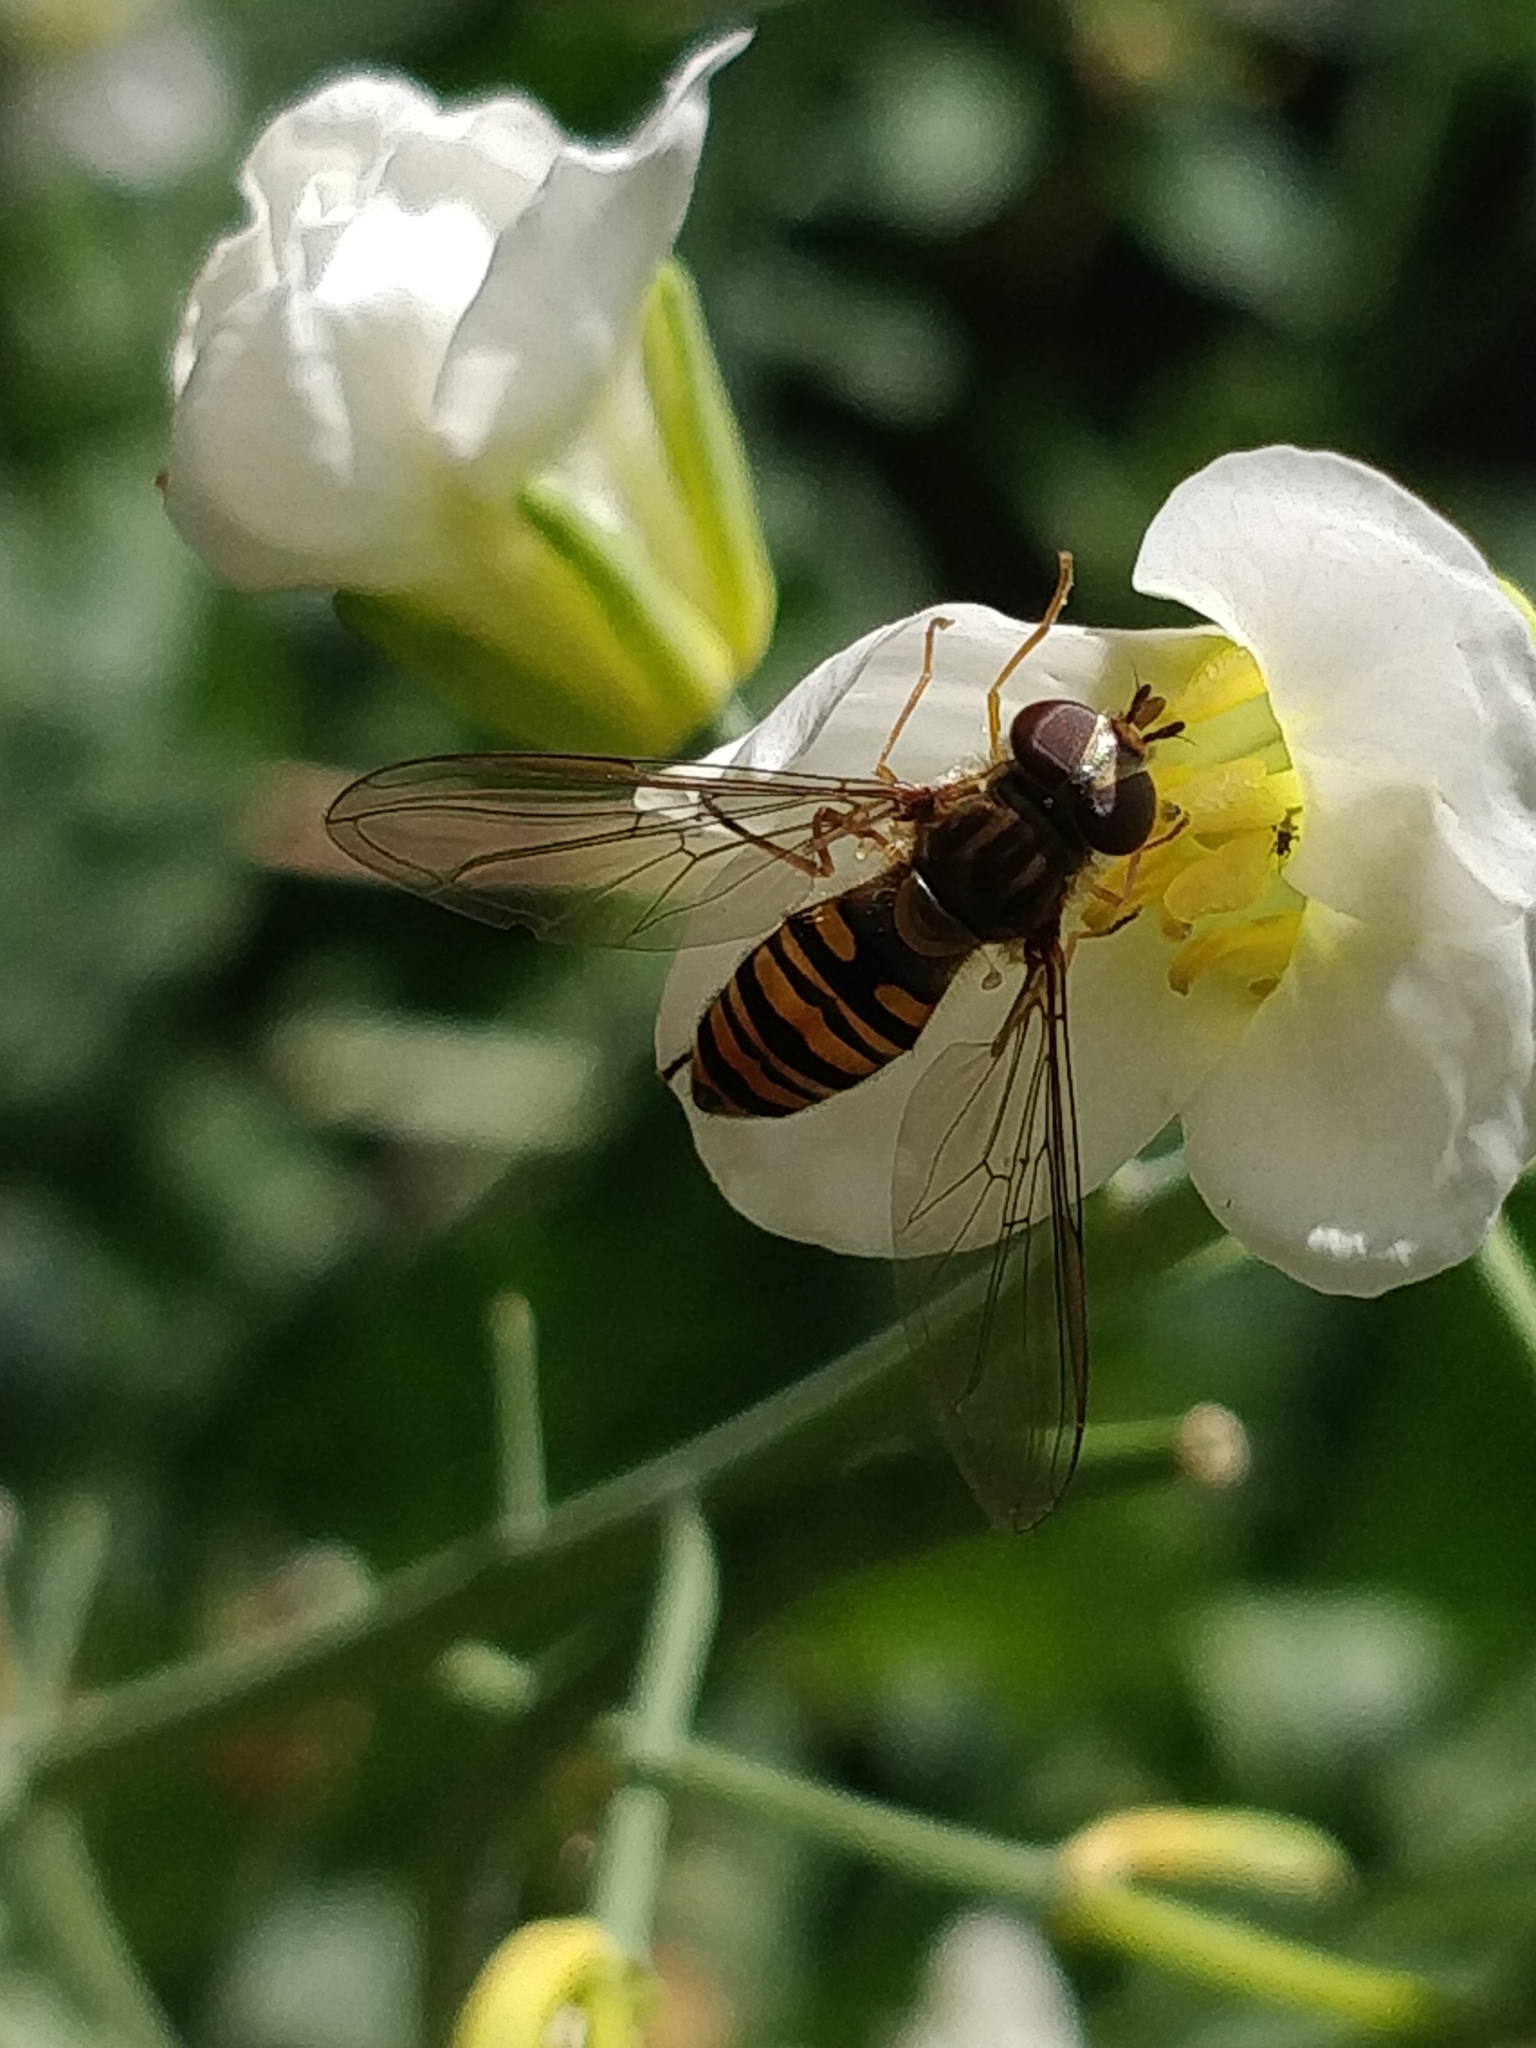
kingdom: Animalia
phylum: Arthropoda
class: Insecta
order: Diptera
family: Syrphidae
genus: Episyrphus
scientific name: Episyrphus balteatus
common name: Marmalade hoverfly
